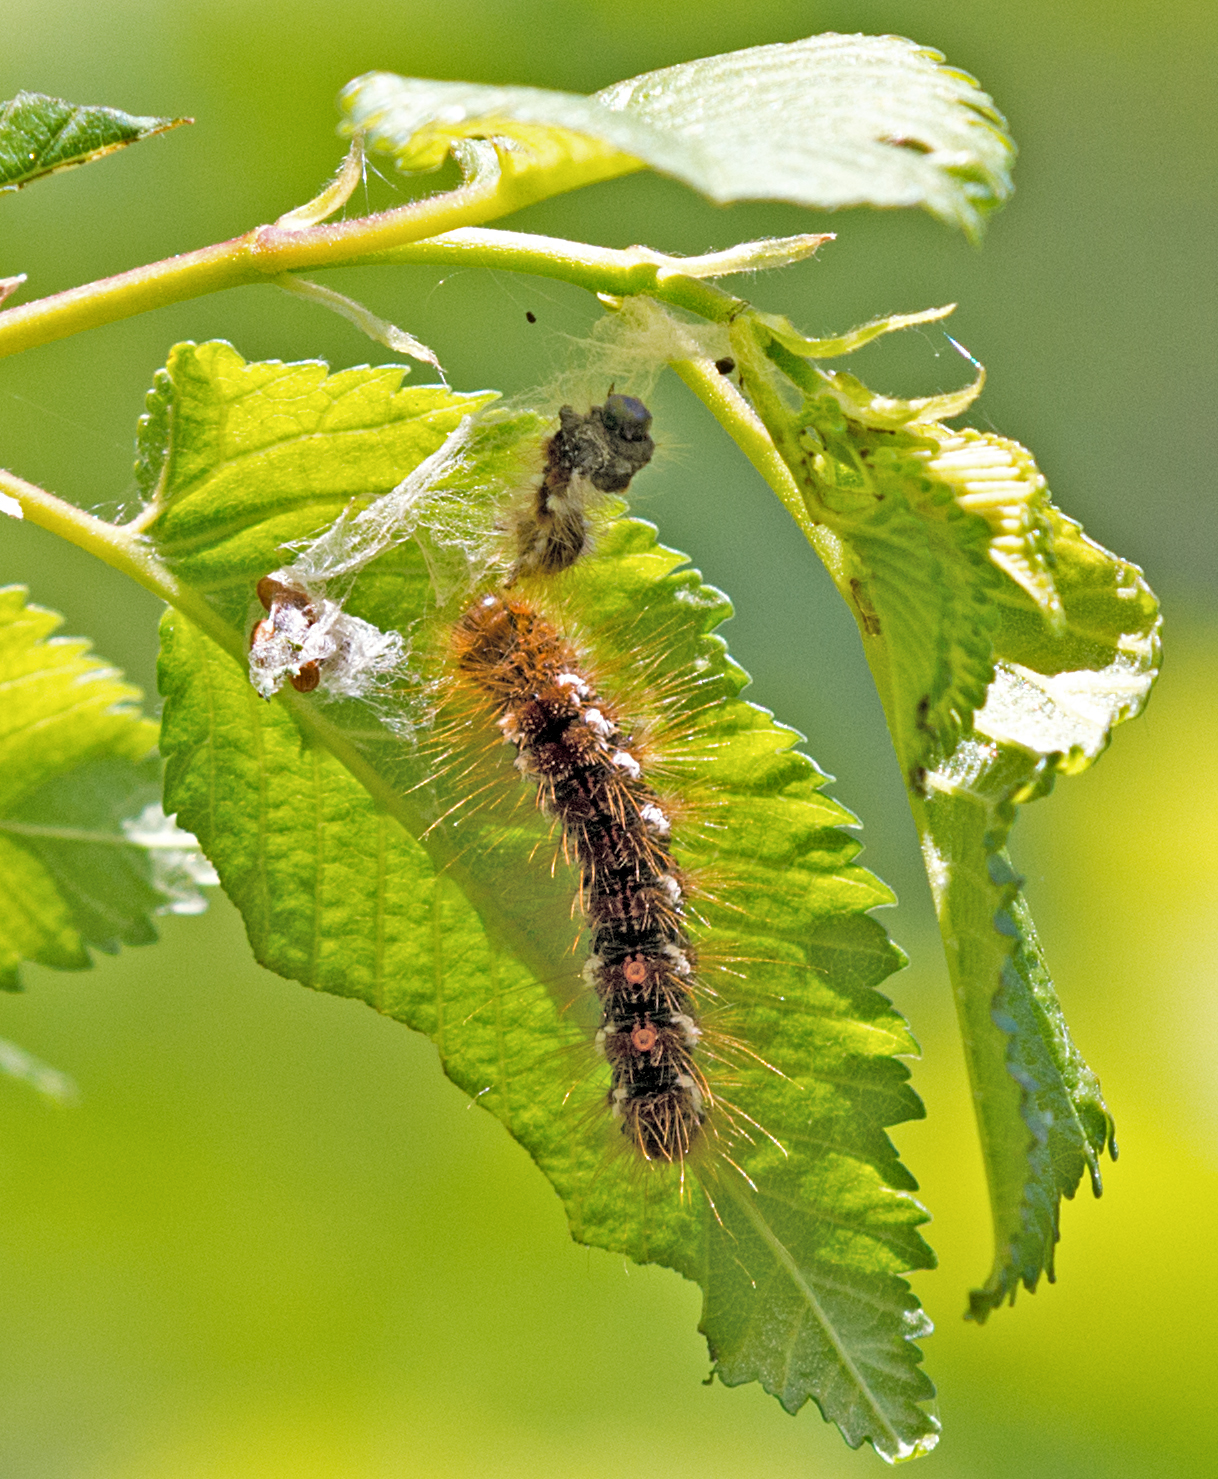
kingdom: Animalia
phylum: Arthropoda
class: Insecta
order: Lepidoptera
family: Erebidae
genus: Euproctis
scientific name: Euproctis chrysorrhoea
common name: Brown-tail
